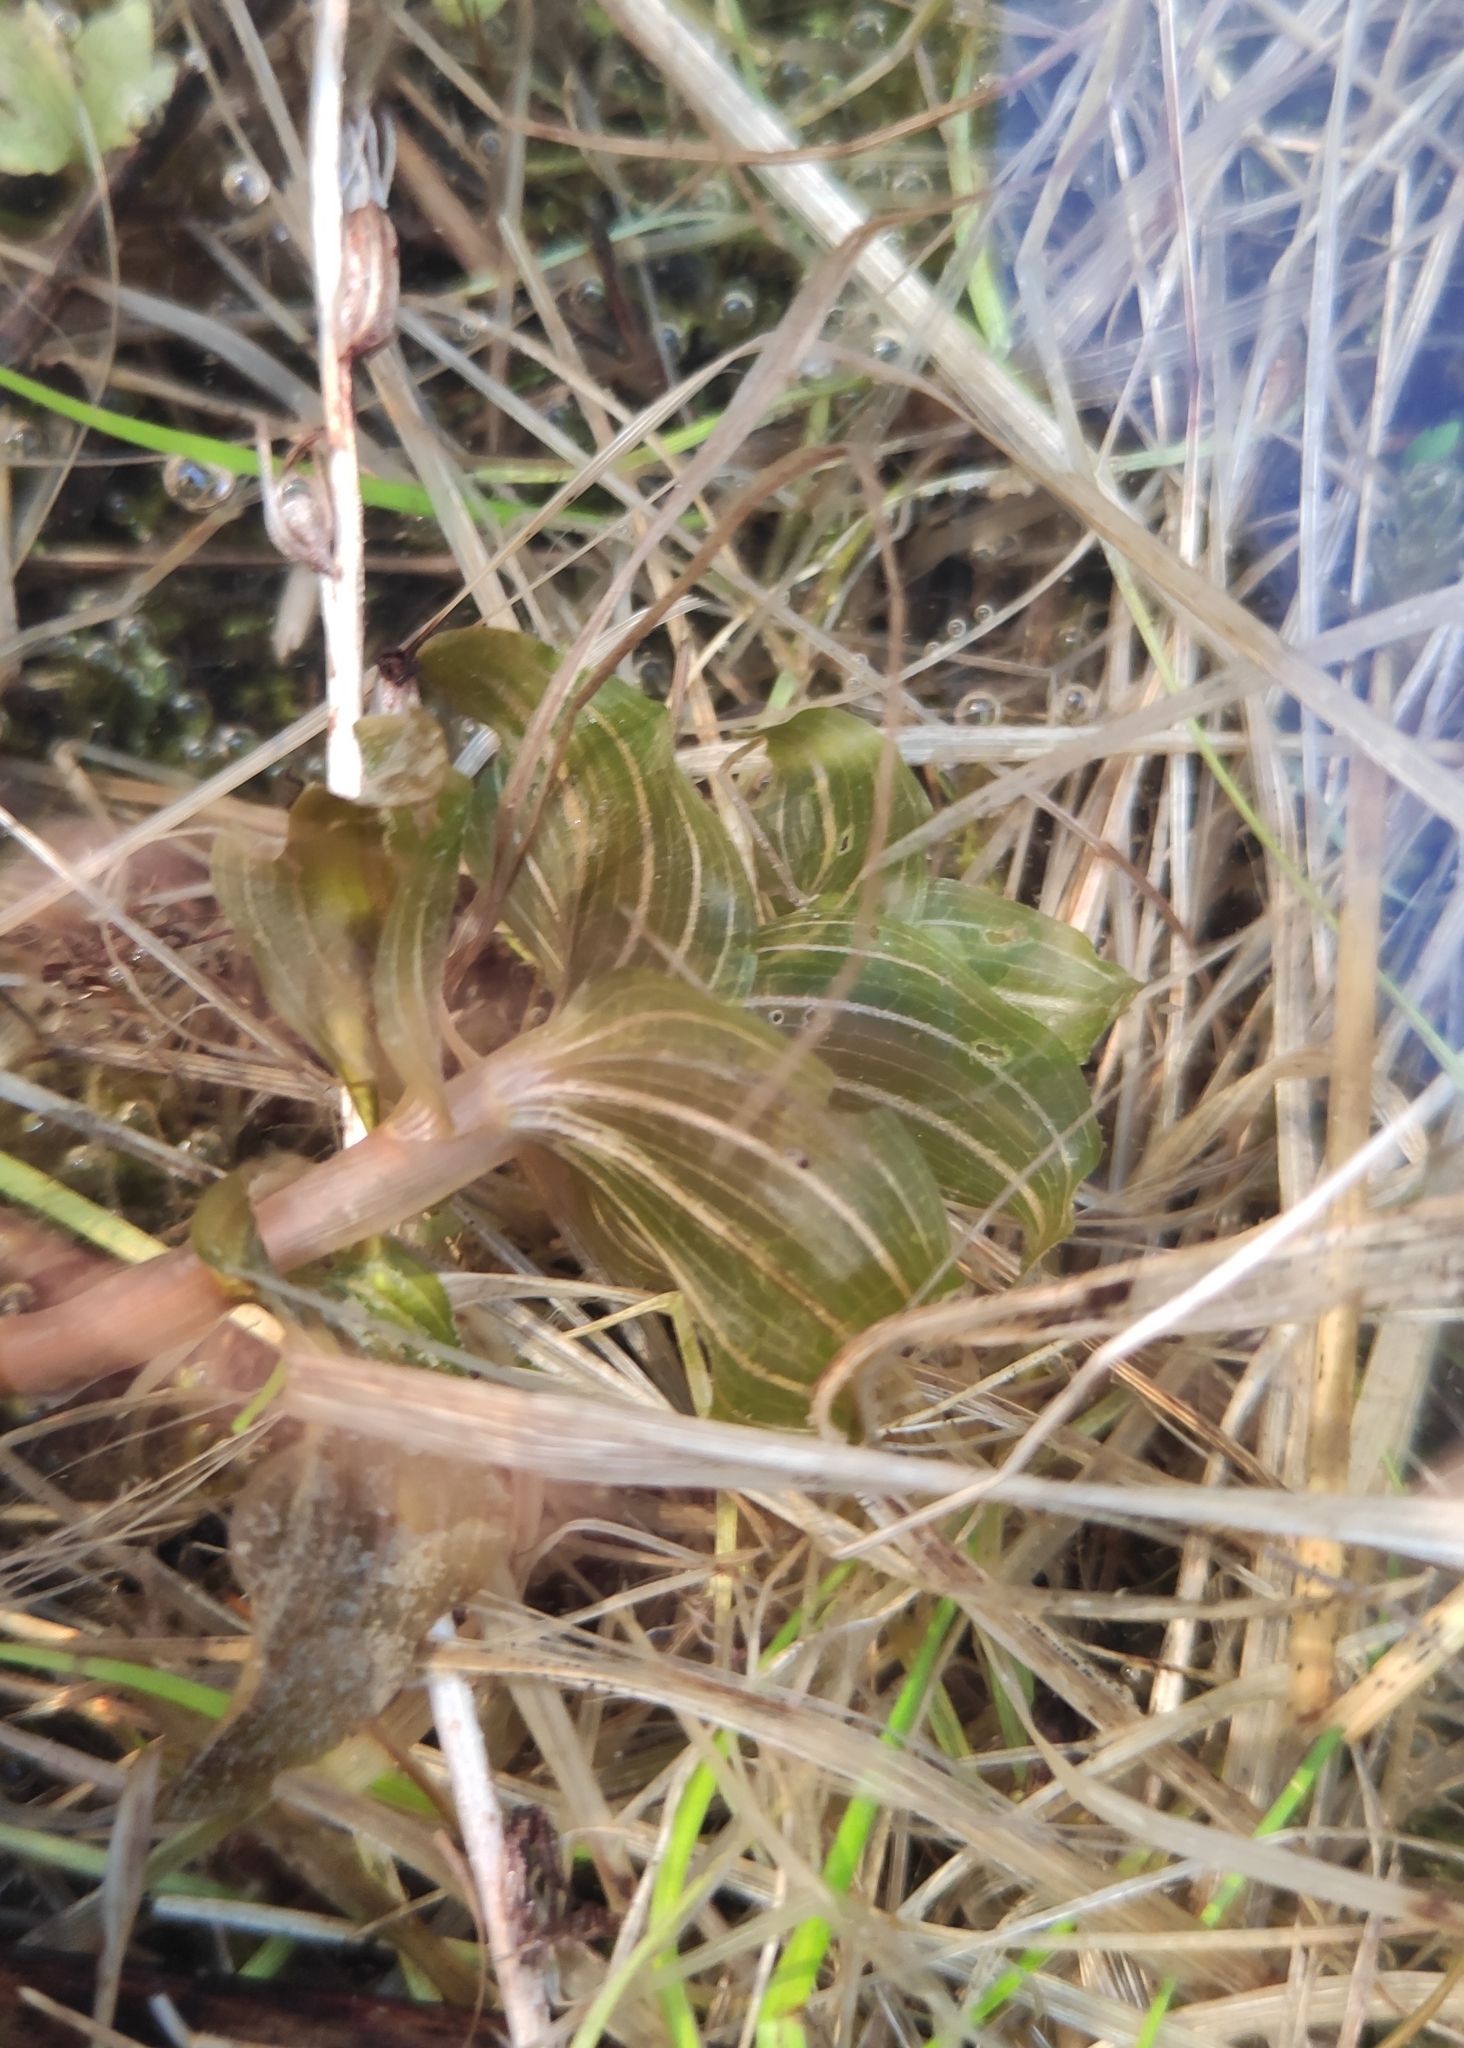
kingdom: Plantae
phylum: Tracheophyta
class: Liliopsida
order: Alismatales
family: Potamogetonaceae
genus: Potamogeton
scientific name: Potamogeton perfoliatus
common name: Perfoliate pondweed
